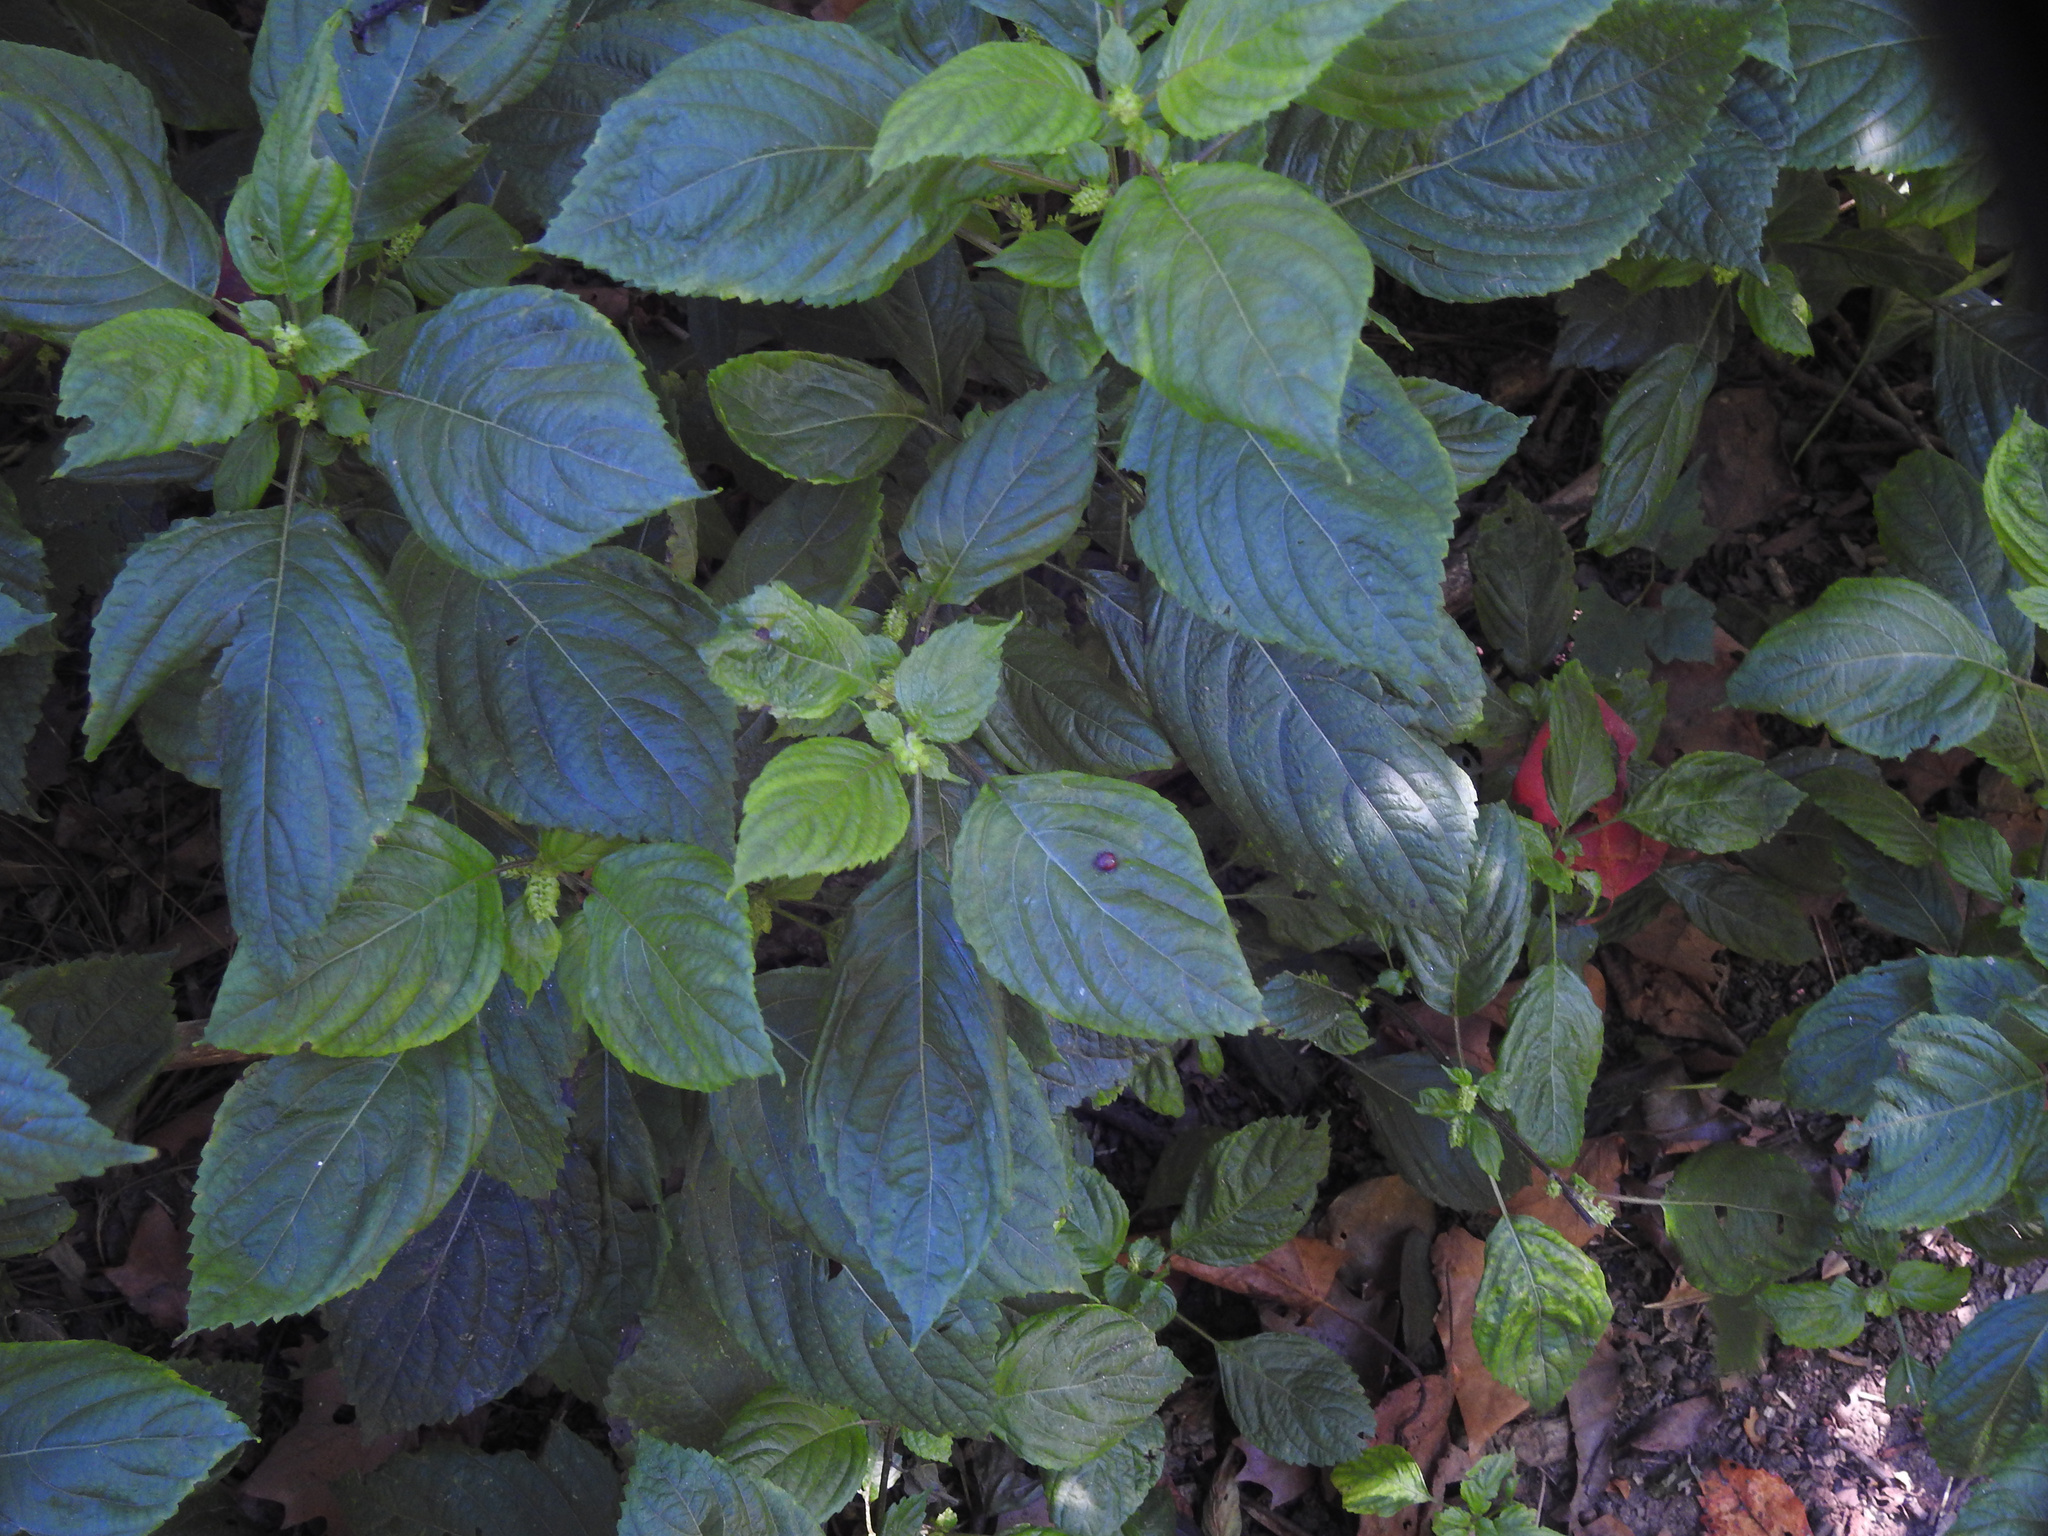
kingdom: Plantae
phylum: Tracheophyta
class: Magnoliopsida
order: Lamiales
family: Lamiaceae
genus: Perilla
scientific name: Perilla frutescens
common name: Perilla
